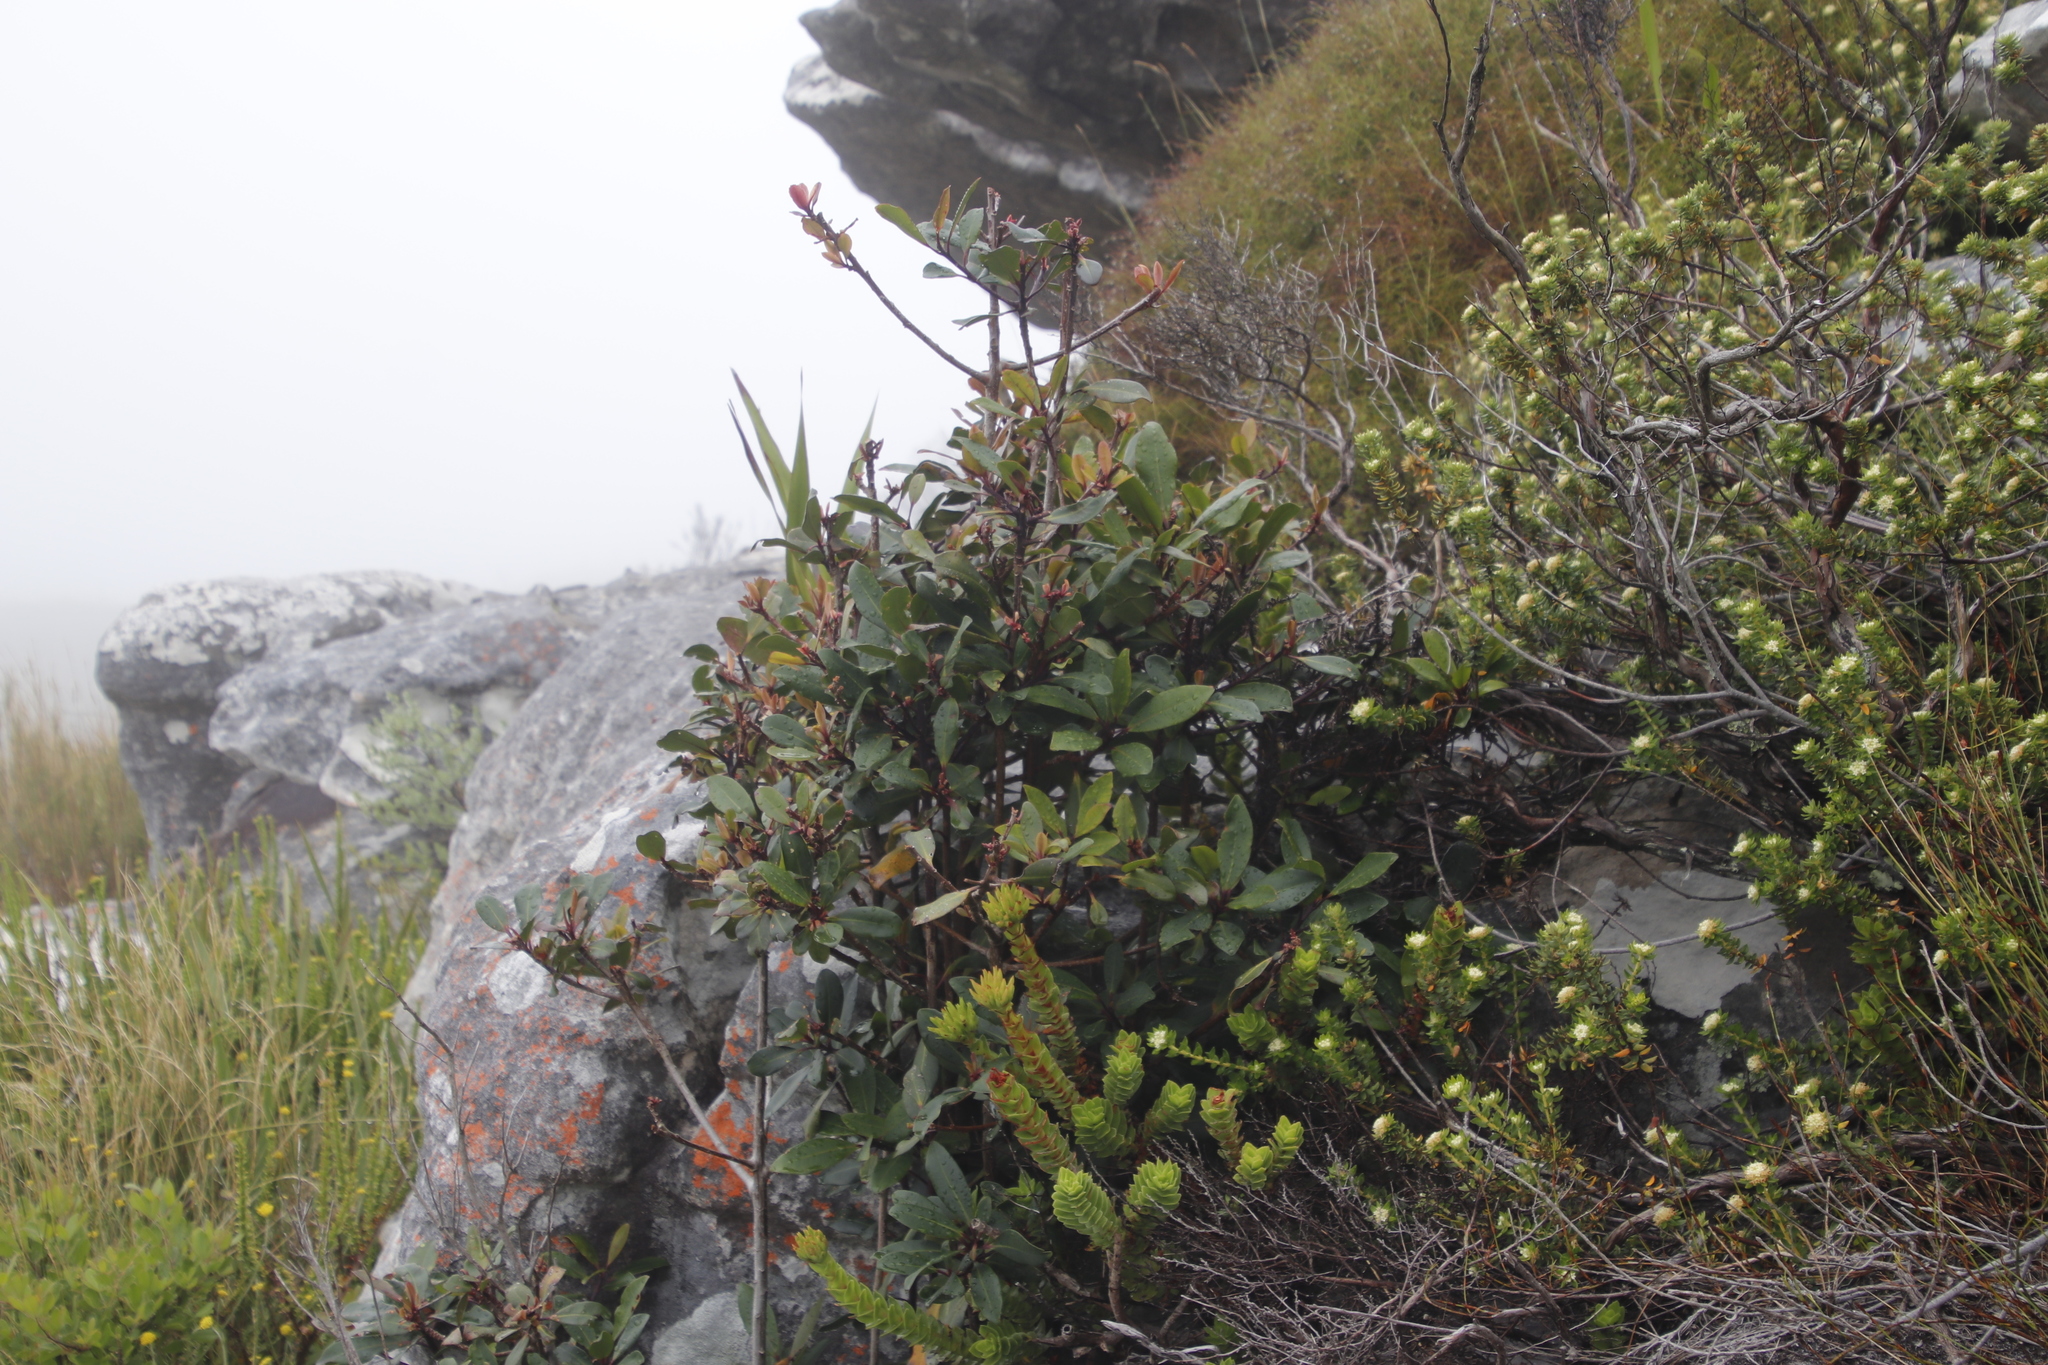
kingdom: Plantae
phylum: Tracheophyta
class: Magnoliopsida
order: Ericales
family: Primulaceae
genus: Myrsine
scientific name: Myrsine melanophloeos
